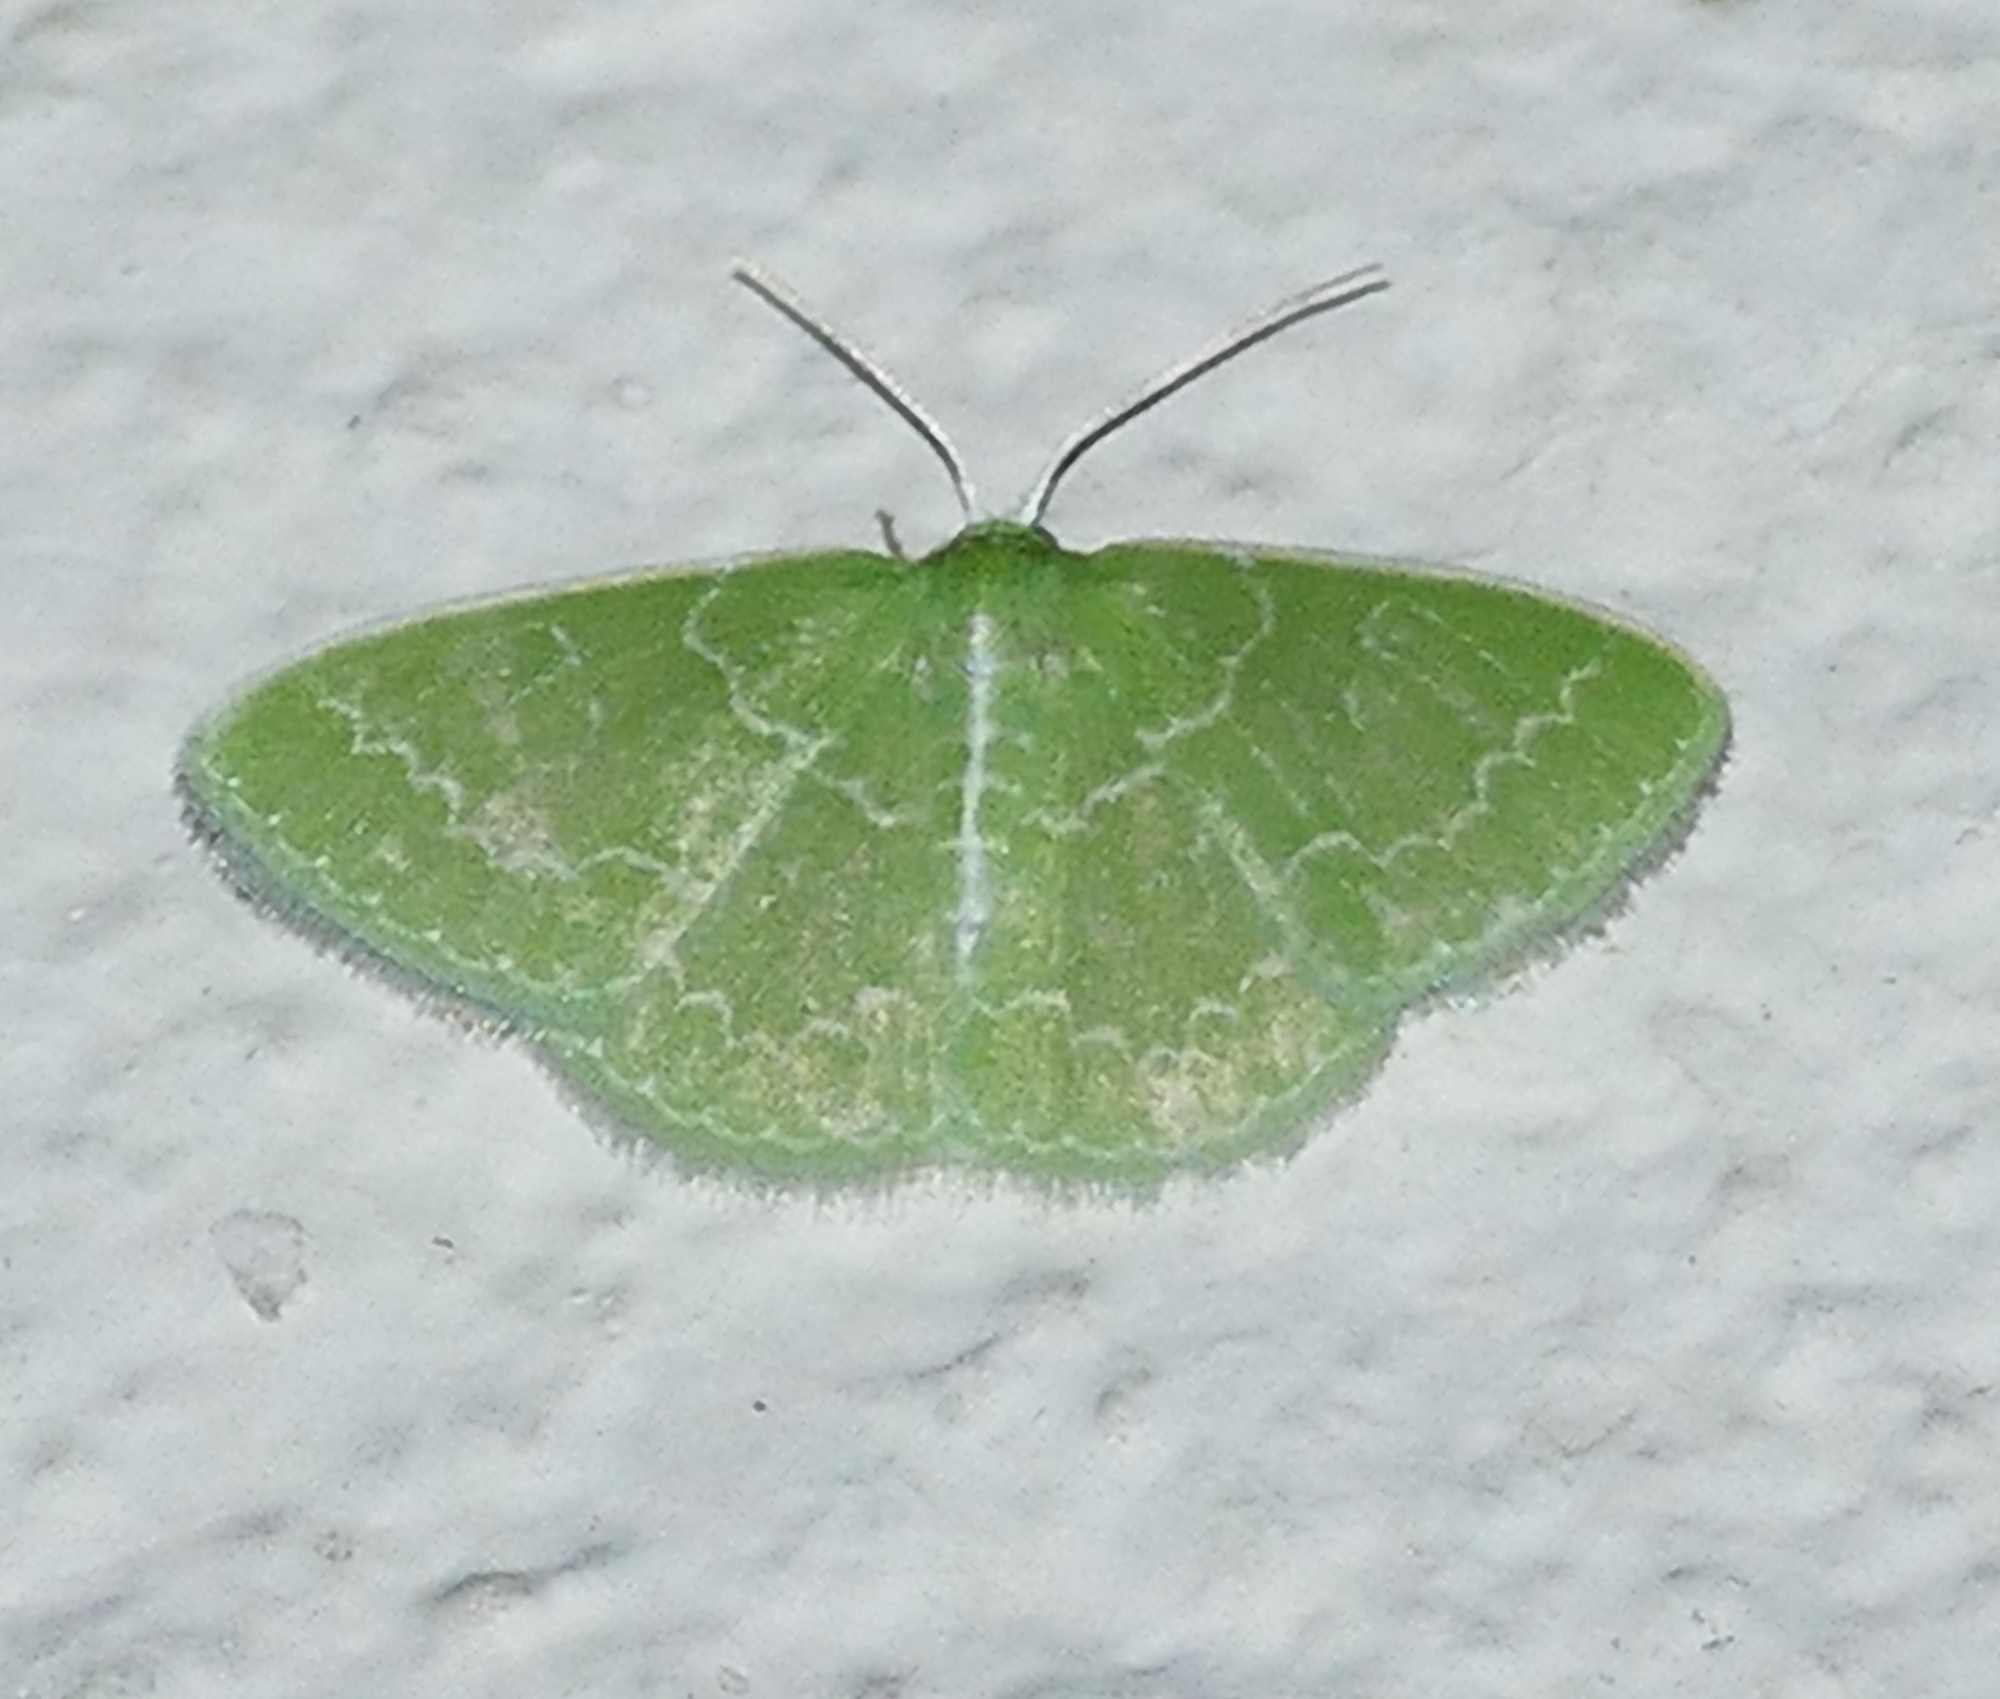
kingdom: Animalia
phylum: Arthropoda
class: Insecta
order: Lepidoptera
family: Geometridae
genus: Synchlora
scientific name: Synchlora frondaria
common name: Southern emerald
